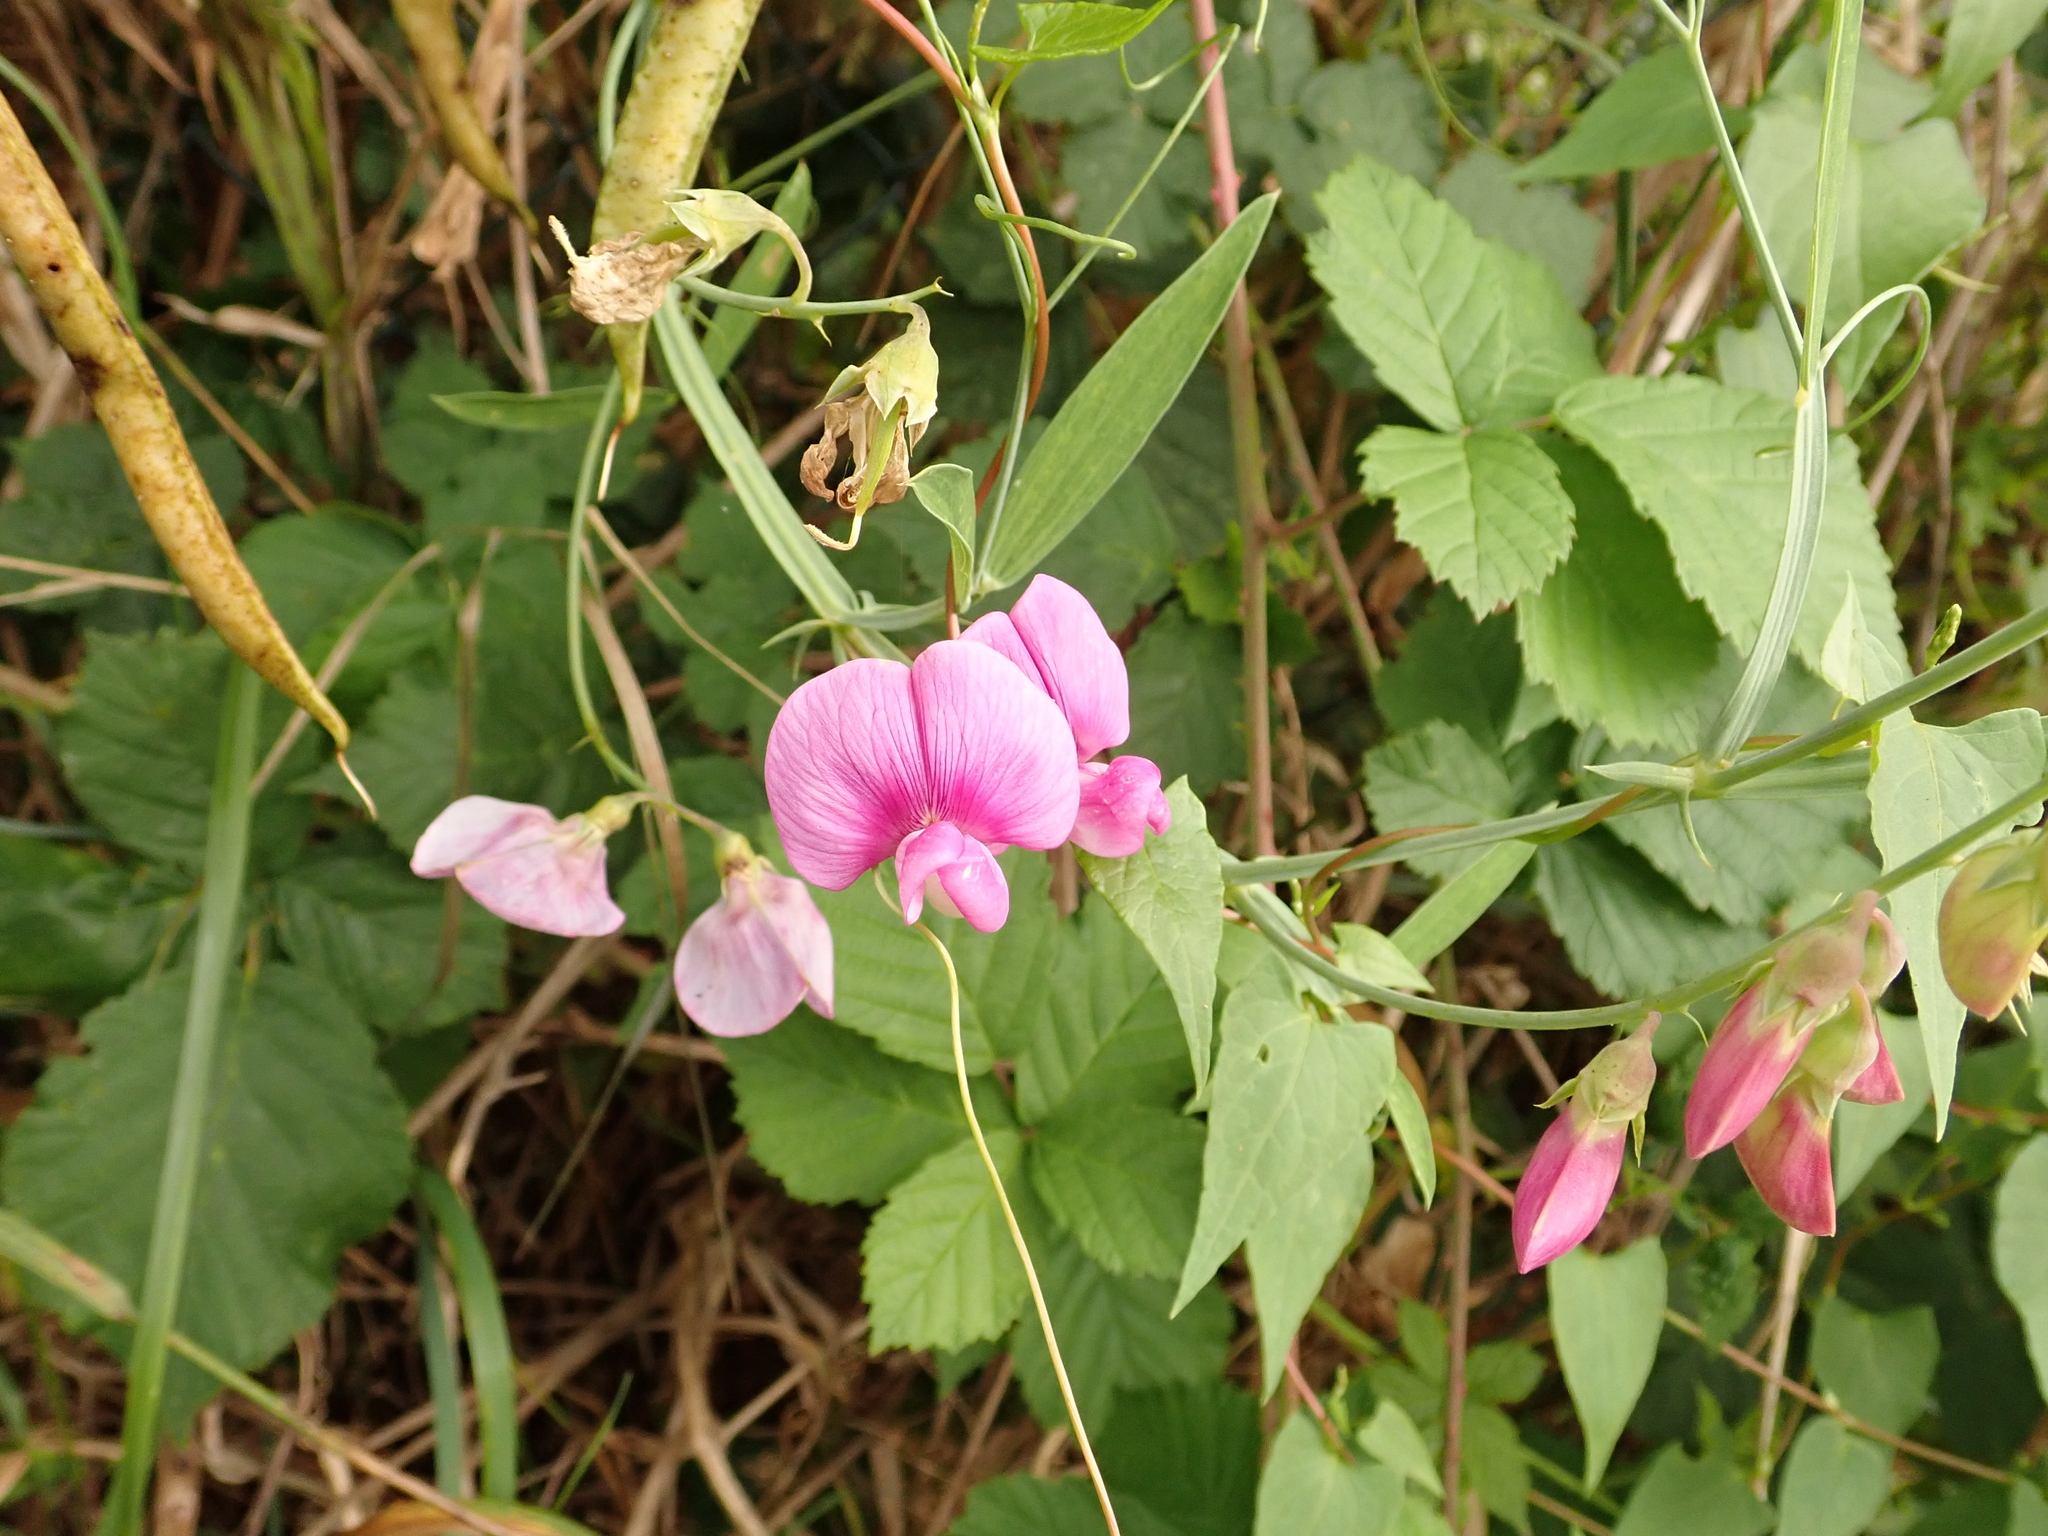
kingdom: Plantae
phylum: Tracheophyta
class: Magnoliopsida
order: Fabales
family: Fabaceae
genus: Lathyrus
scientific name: Lathyrus latifolius
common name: Perennial pea
